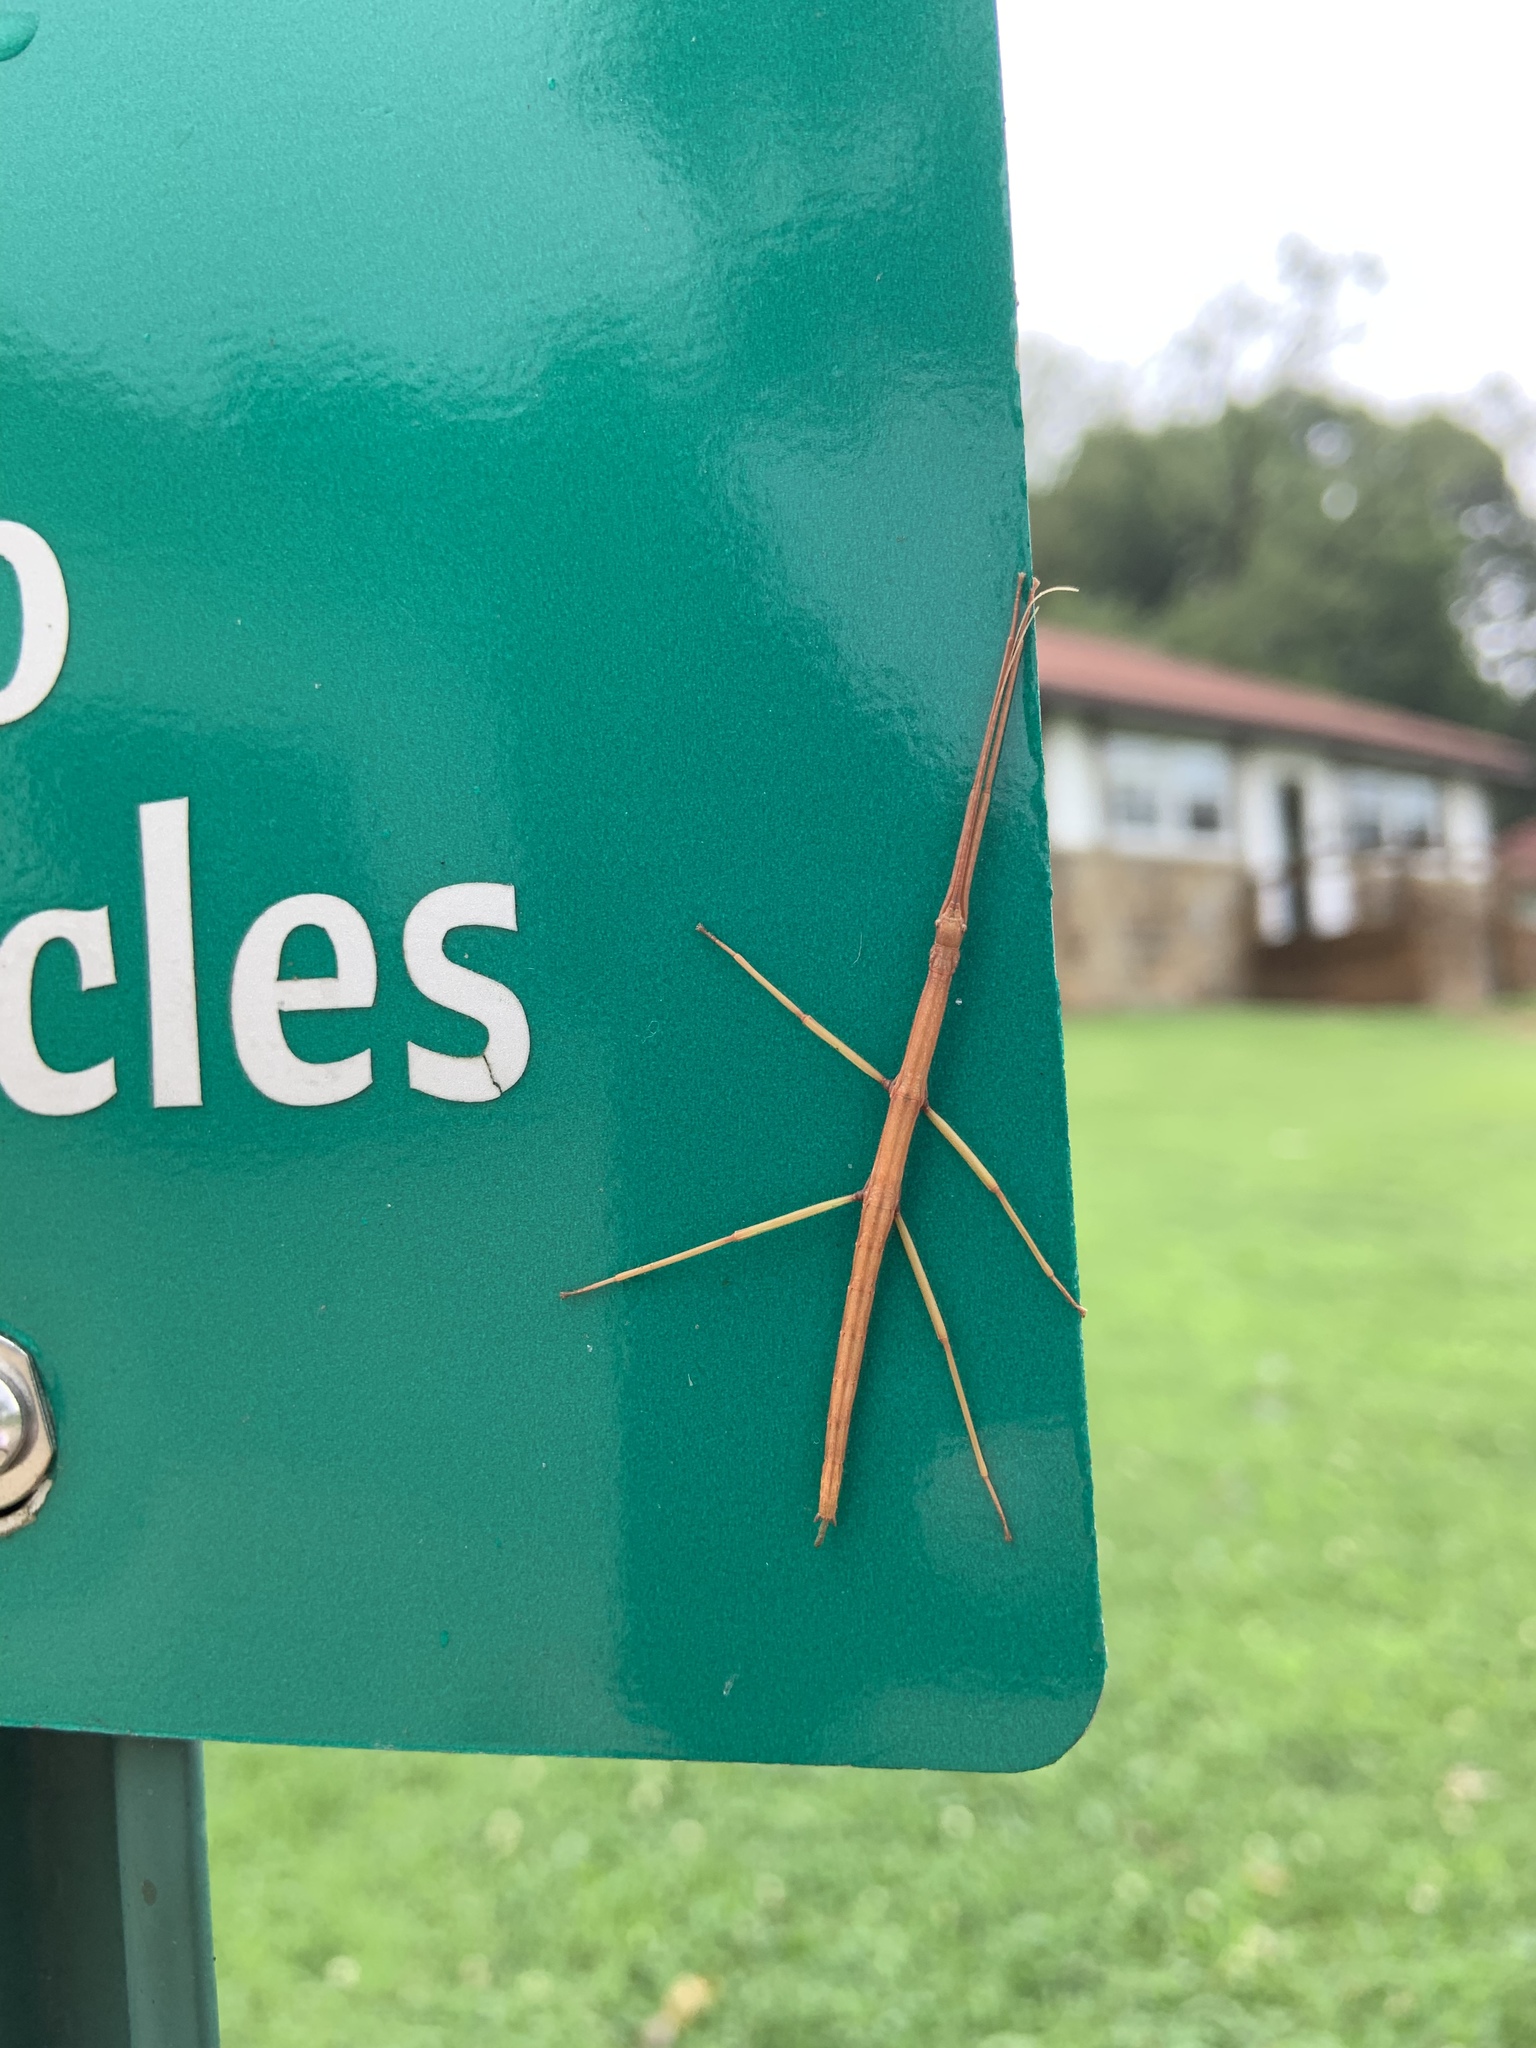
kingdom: Animalia
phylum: Arthropoda
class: Insecta
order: Phasmida
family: Diapheromeridae
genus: Diapheromera
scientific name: Diapheromera femorata
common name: Common american walkingstick
